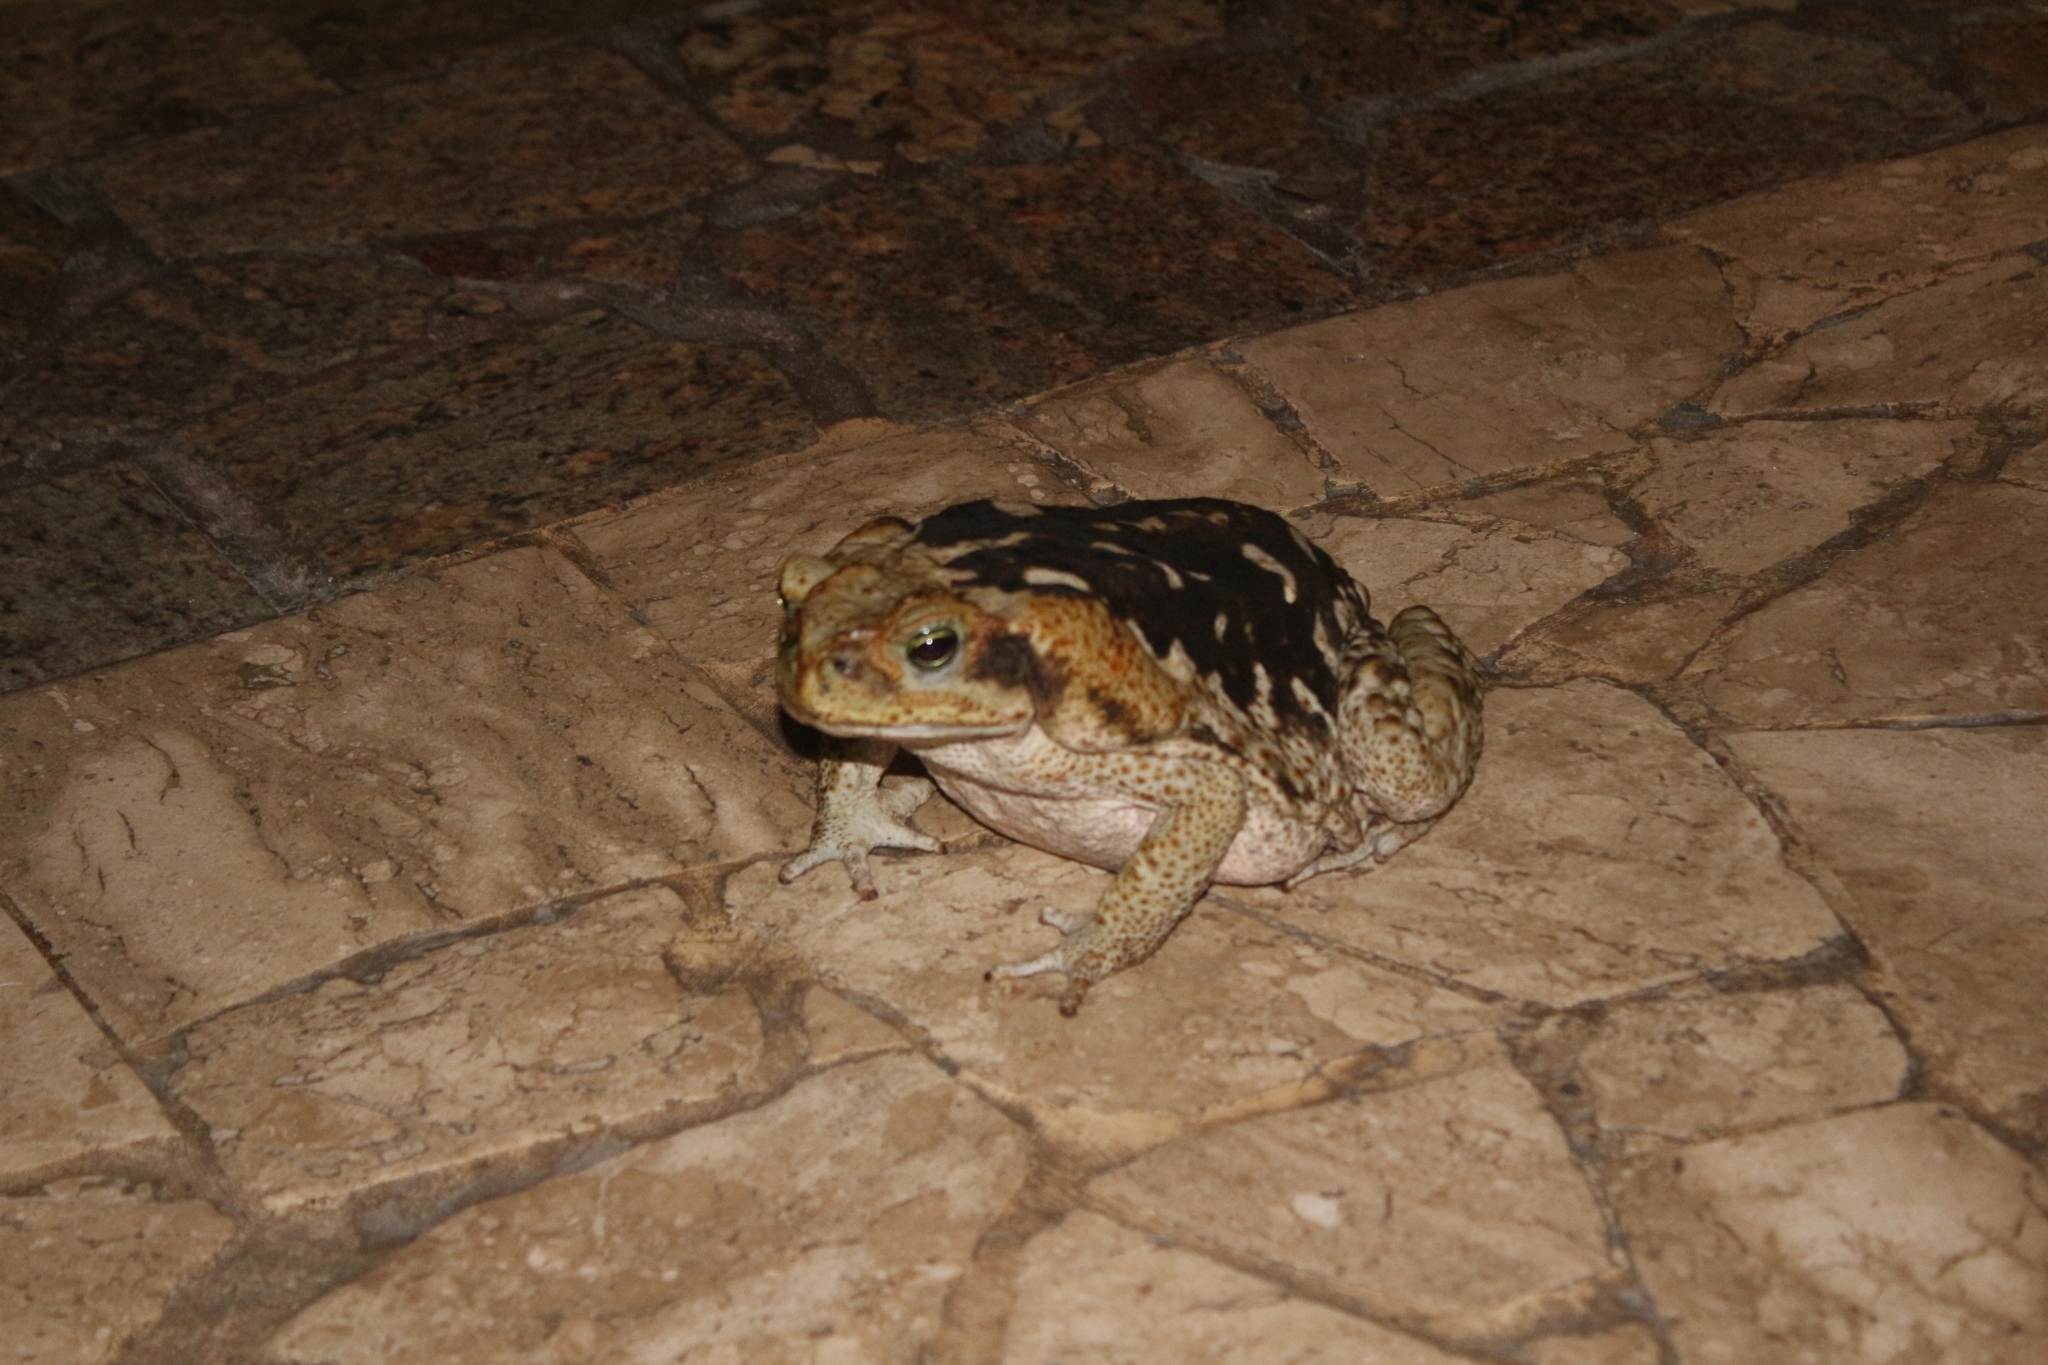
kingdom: Animalia
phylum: Chordata
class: Amphibia
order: Anura
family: Bufonidae
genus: Rhinella
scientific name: Rhinella diptycha
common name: Cope's toad
